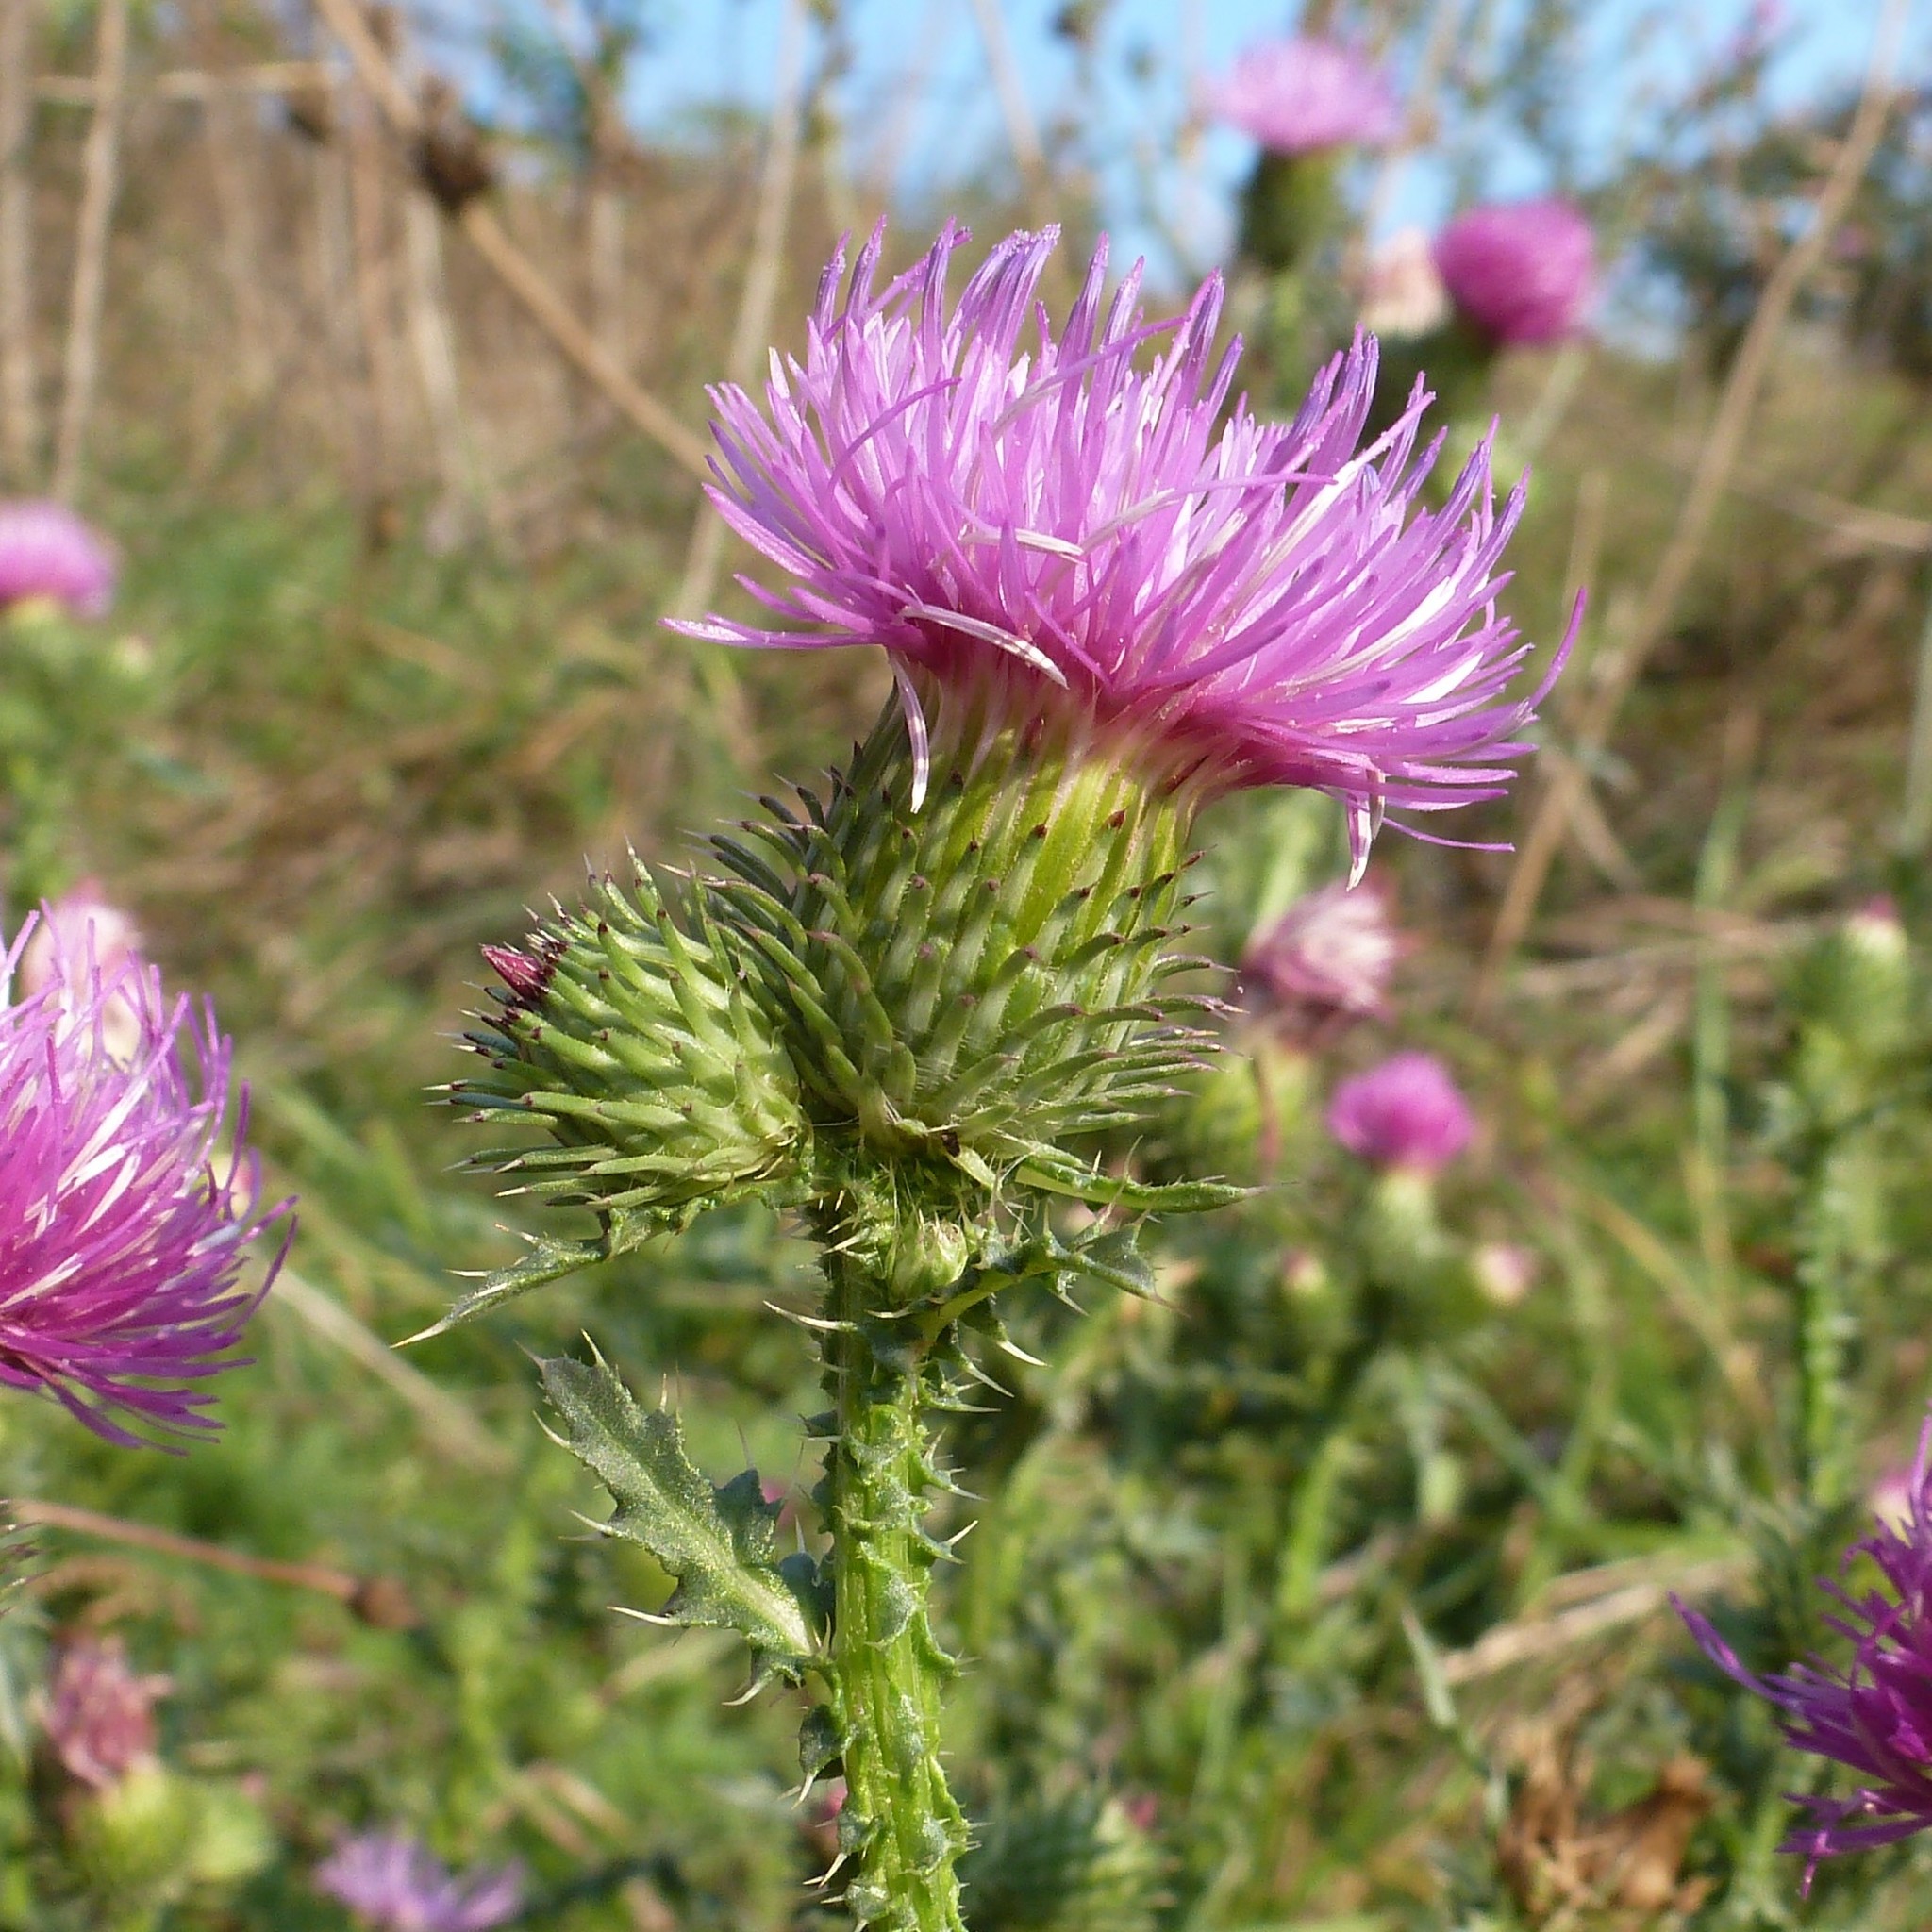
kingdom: Plantae
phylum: Tracheophyta
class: Magnoliopsida
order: Asterales
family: Asteraceae
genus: Carduus
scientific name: Carduus acanthoides
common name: Plumeless thistle
